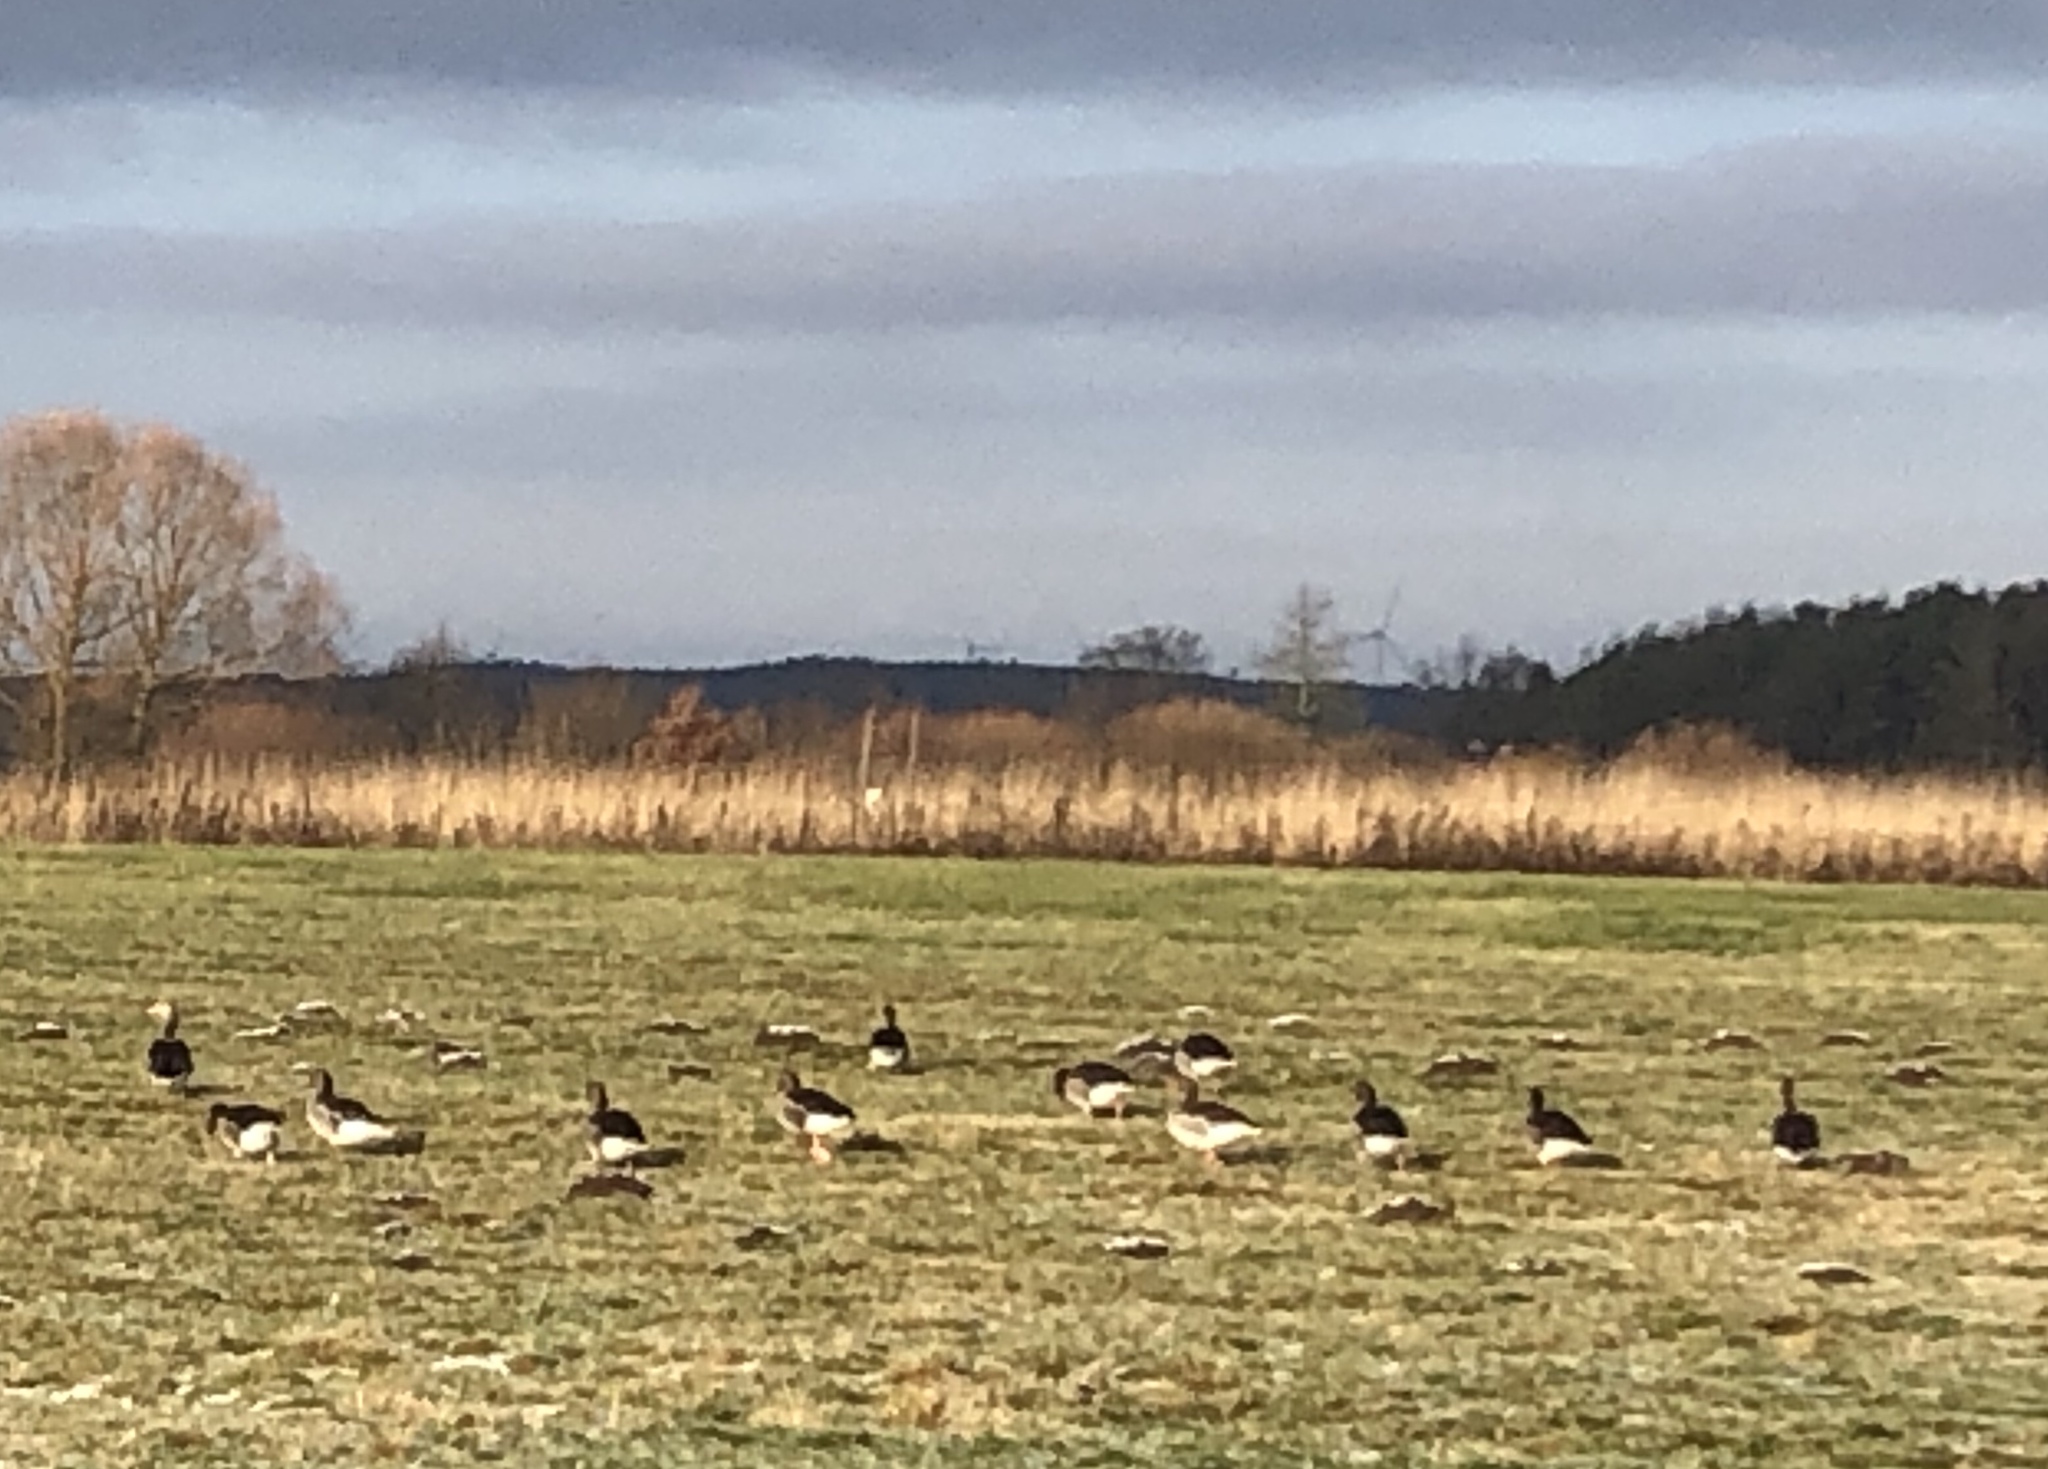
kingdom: Animalia
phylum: Chordata
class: Aves
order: Anseriformes
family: Anatidae
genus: Anser
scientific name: Anser anser
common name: Greylag goose
